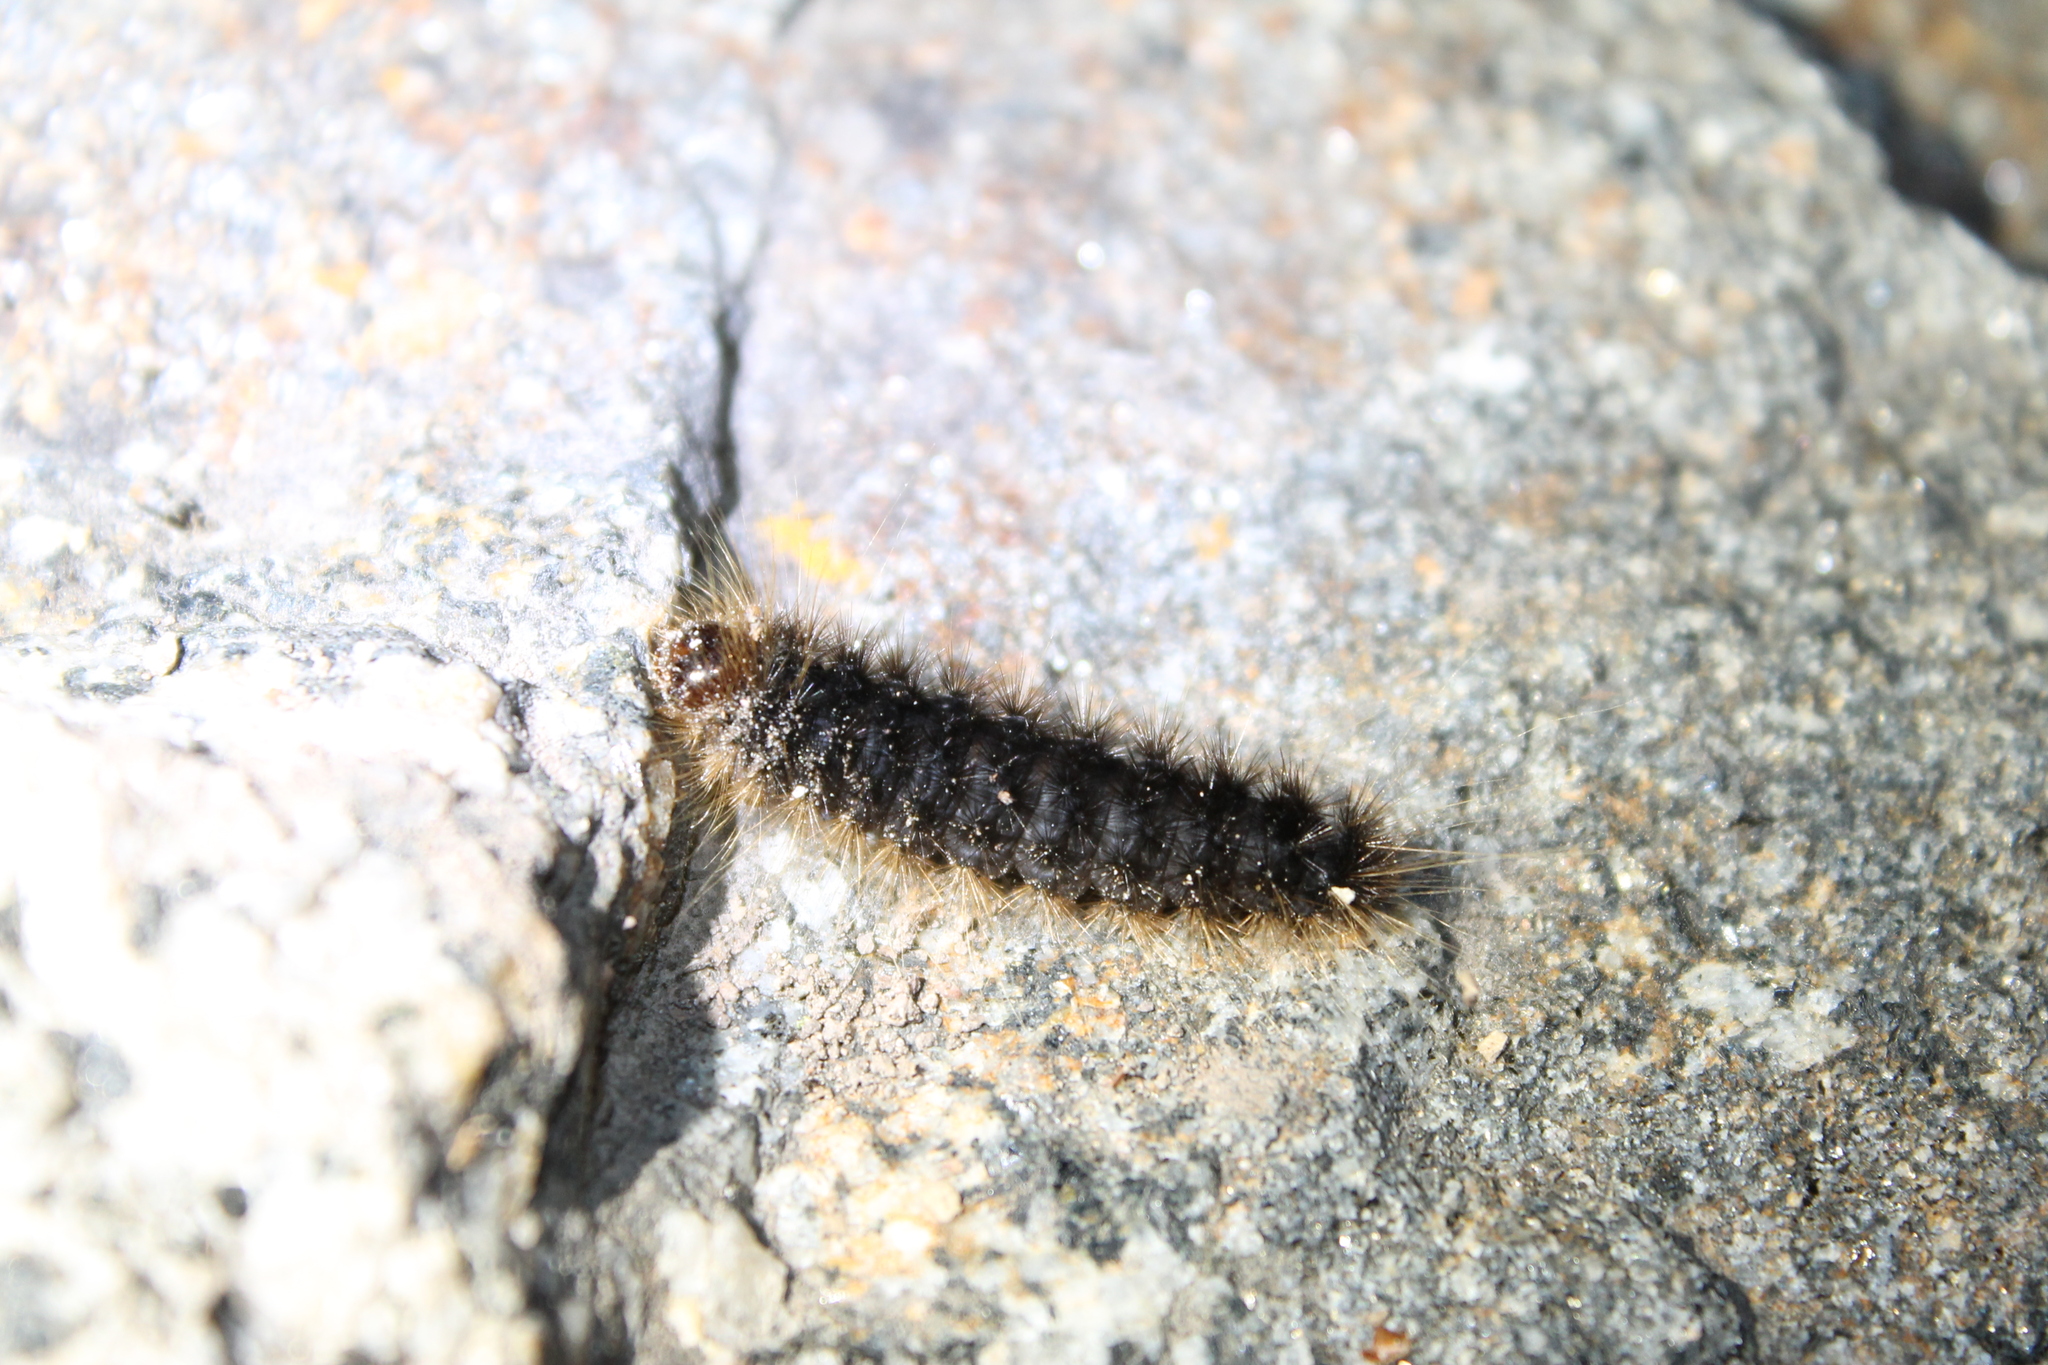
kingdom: Animalia
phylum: Arthropoda
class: Insecta
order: Lepidoptera
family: Erebidae
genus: Hemihyalea
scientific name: Hemihyalea edwardsii
